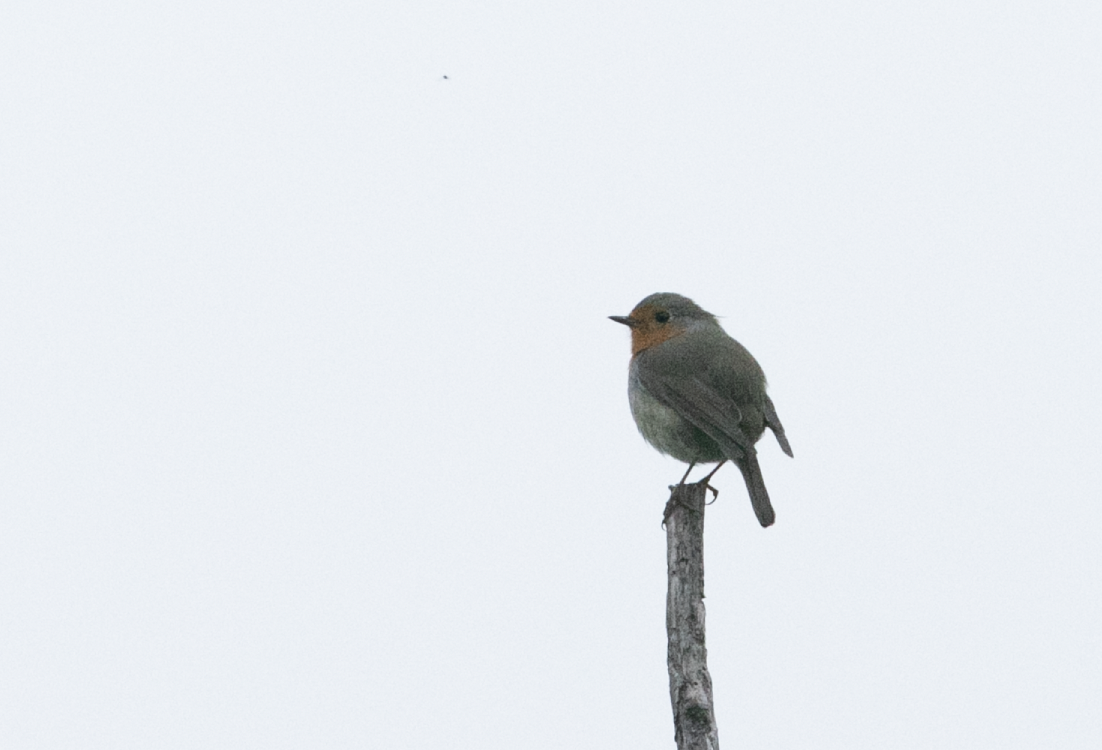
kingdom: Animalia
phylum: Chordata
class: Aves
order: Passeriformes
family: Muscicapidae
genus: Erithacus
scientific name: Erithacus rubecula
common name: European robin
